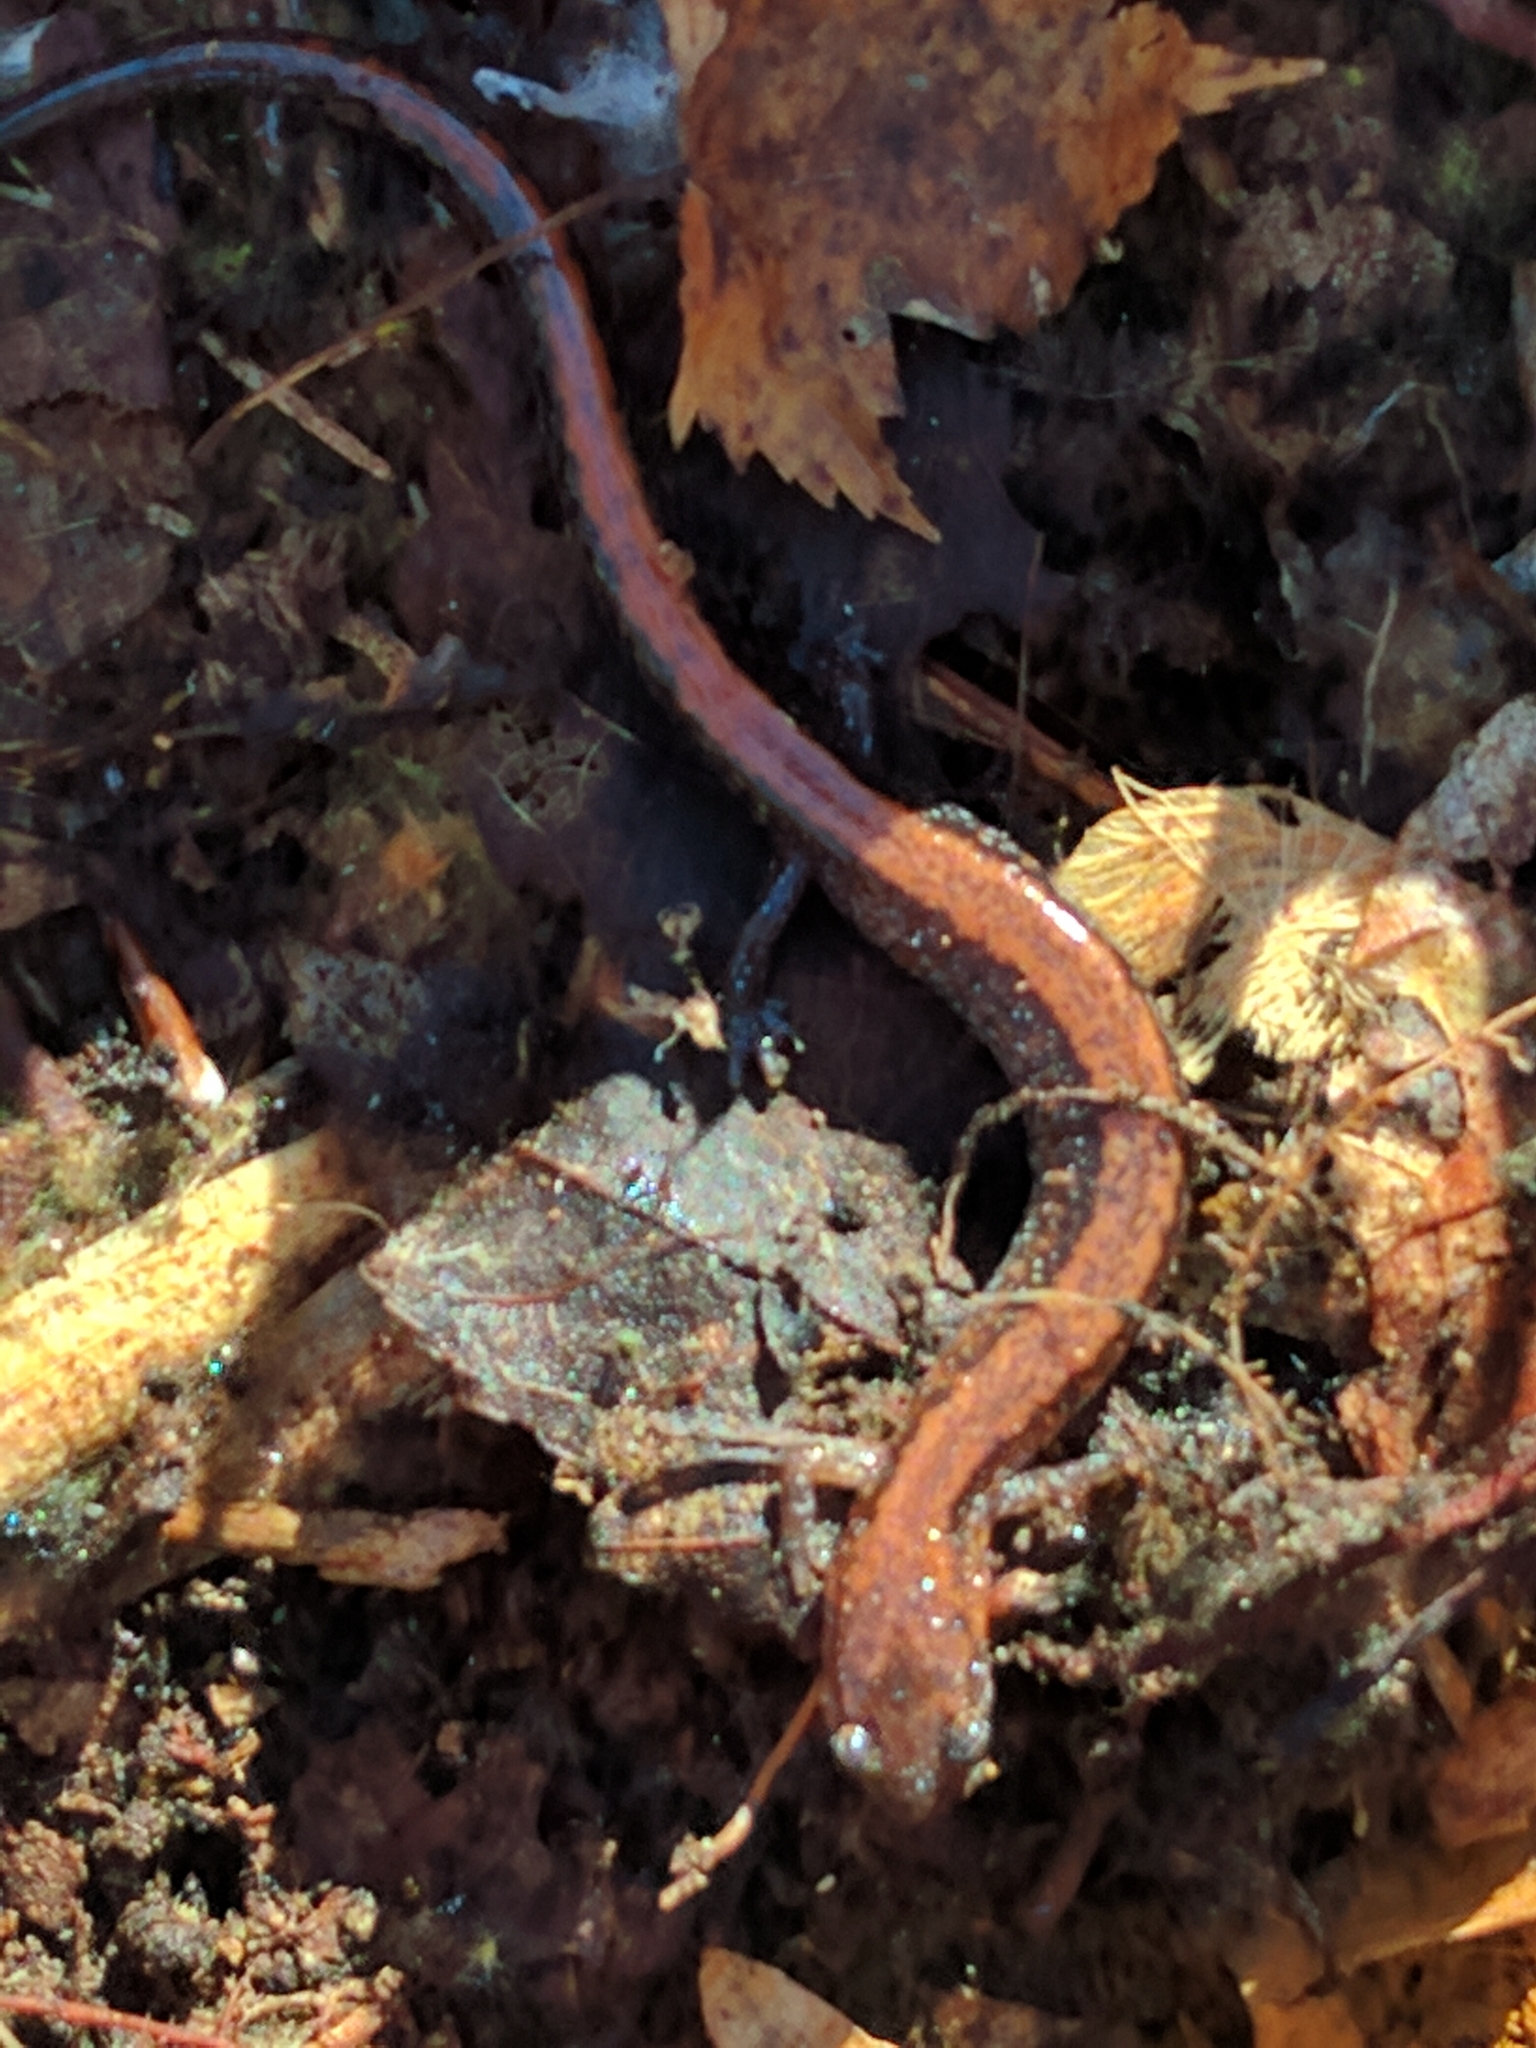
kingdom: Animalia
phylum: Chordata
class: Amphibia
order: Caudata
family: Plethodontidae
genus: Plethodon
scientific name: Plethodon cinereus
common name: Redback salamander
